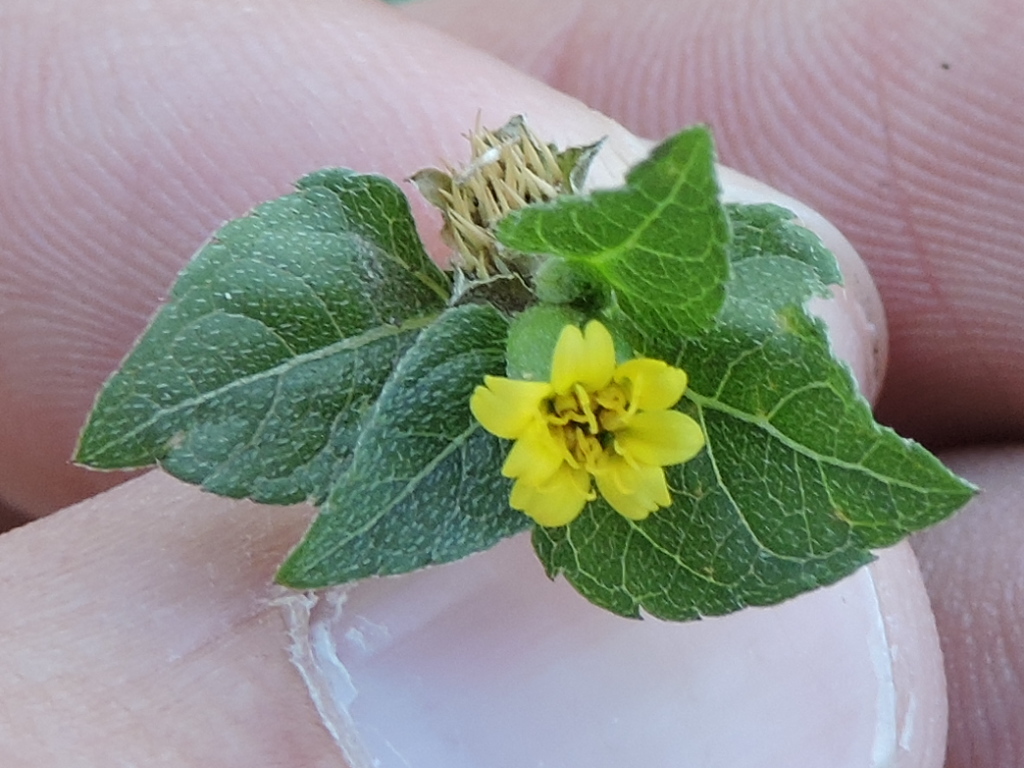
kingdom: Plantae
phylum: Tracheophyta
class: Magnoliopsida
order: Asterales
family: Asteraceae
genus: Calyptocarpus
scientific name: Calyptocarpus vialis
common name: Straggler daisy
